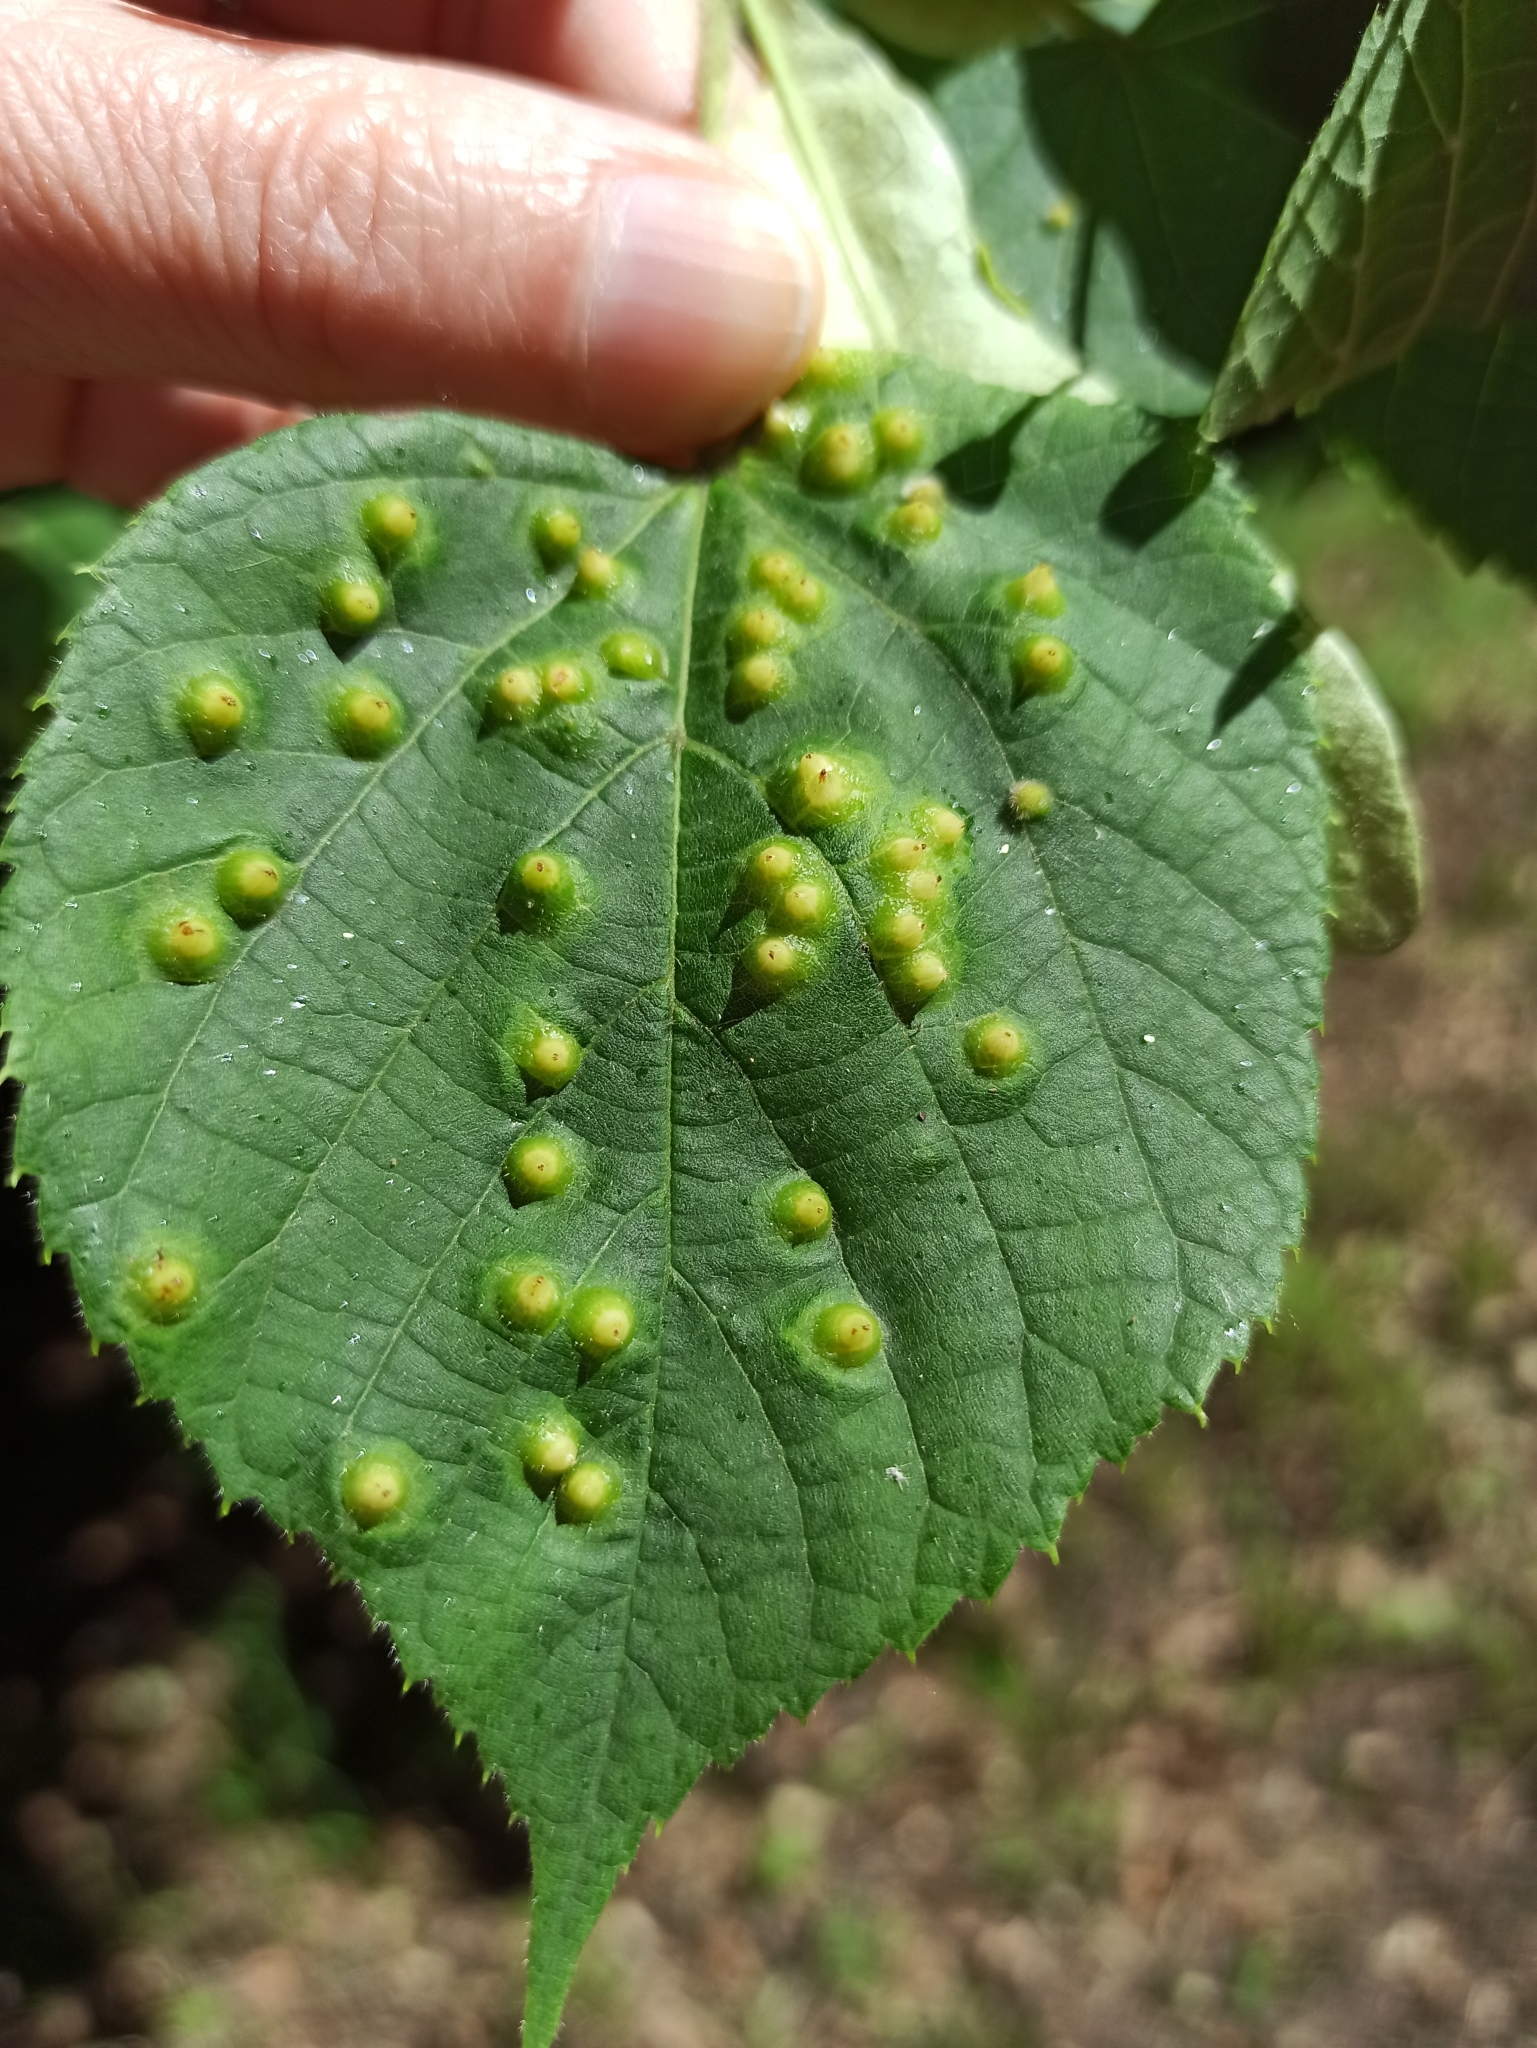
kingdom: Animalia
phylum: Arthropoda
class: Insecta
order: Diptera
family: Cecidomyiidae
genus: Didymomyia
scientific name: Didymomyia tiliacea
